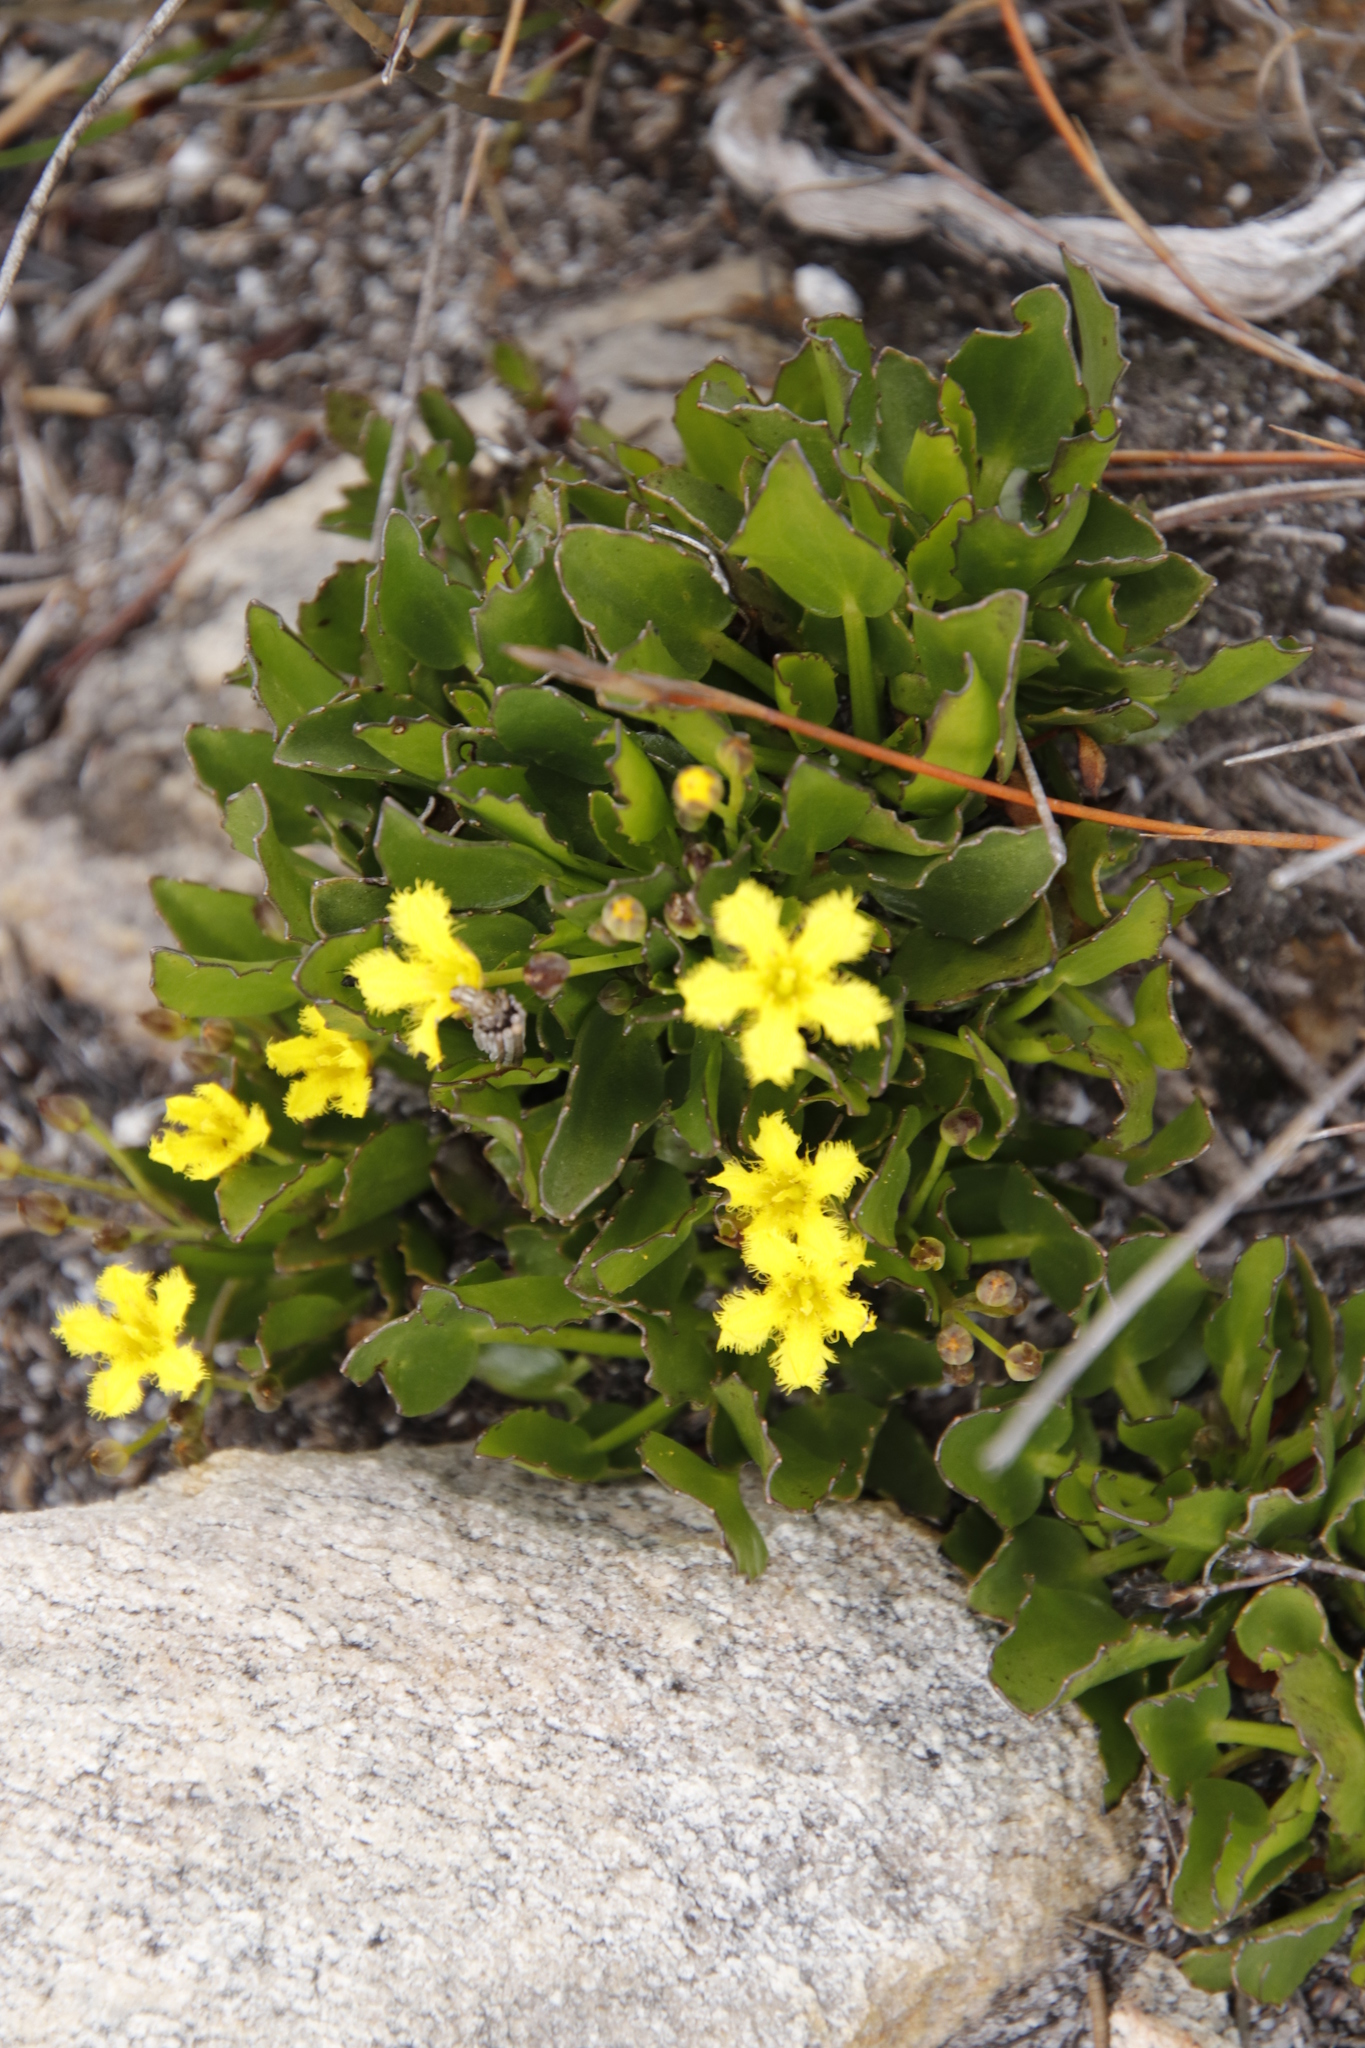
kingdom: Plantae
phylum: Tracheophyta
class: Magnoliopsida
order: Asterales
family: Menyanthaceae
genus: Villarsia
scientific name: Villarsia manningiana
